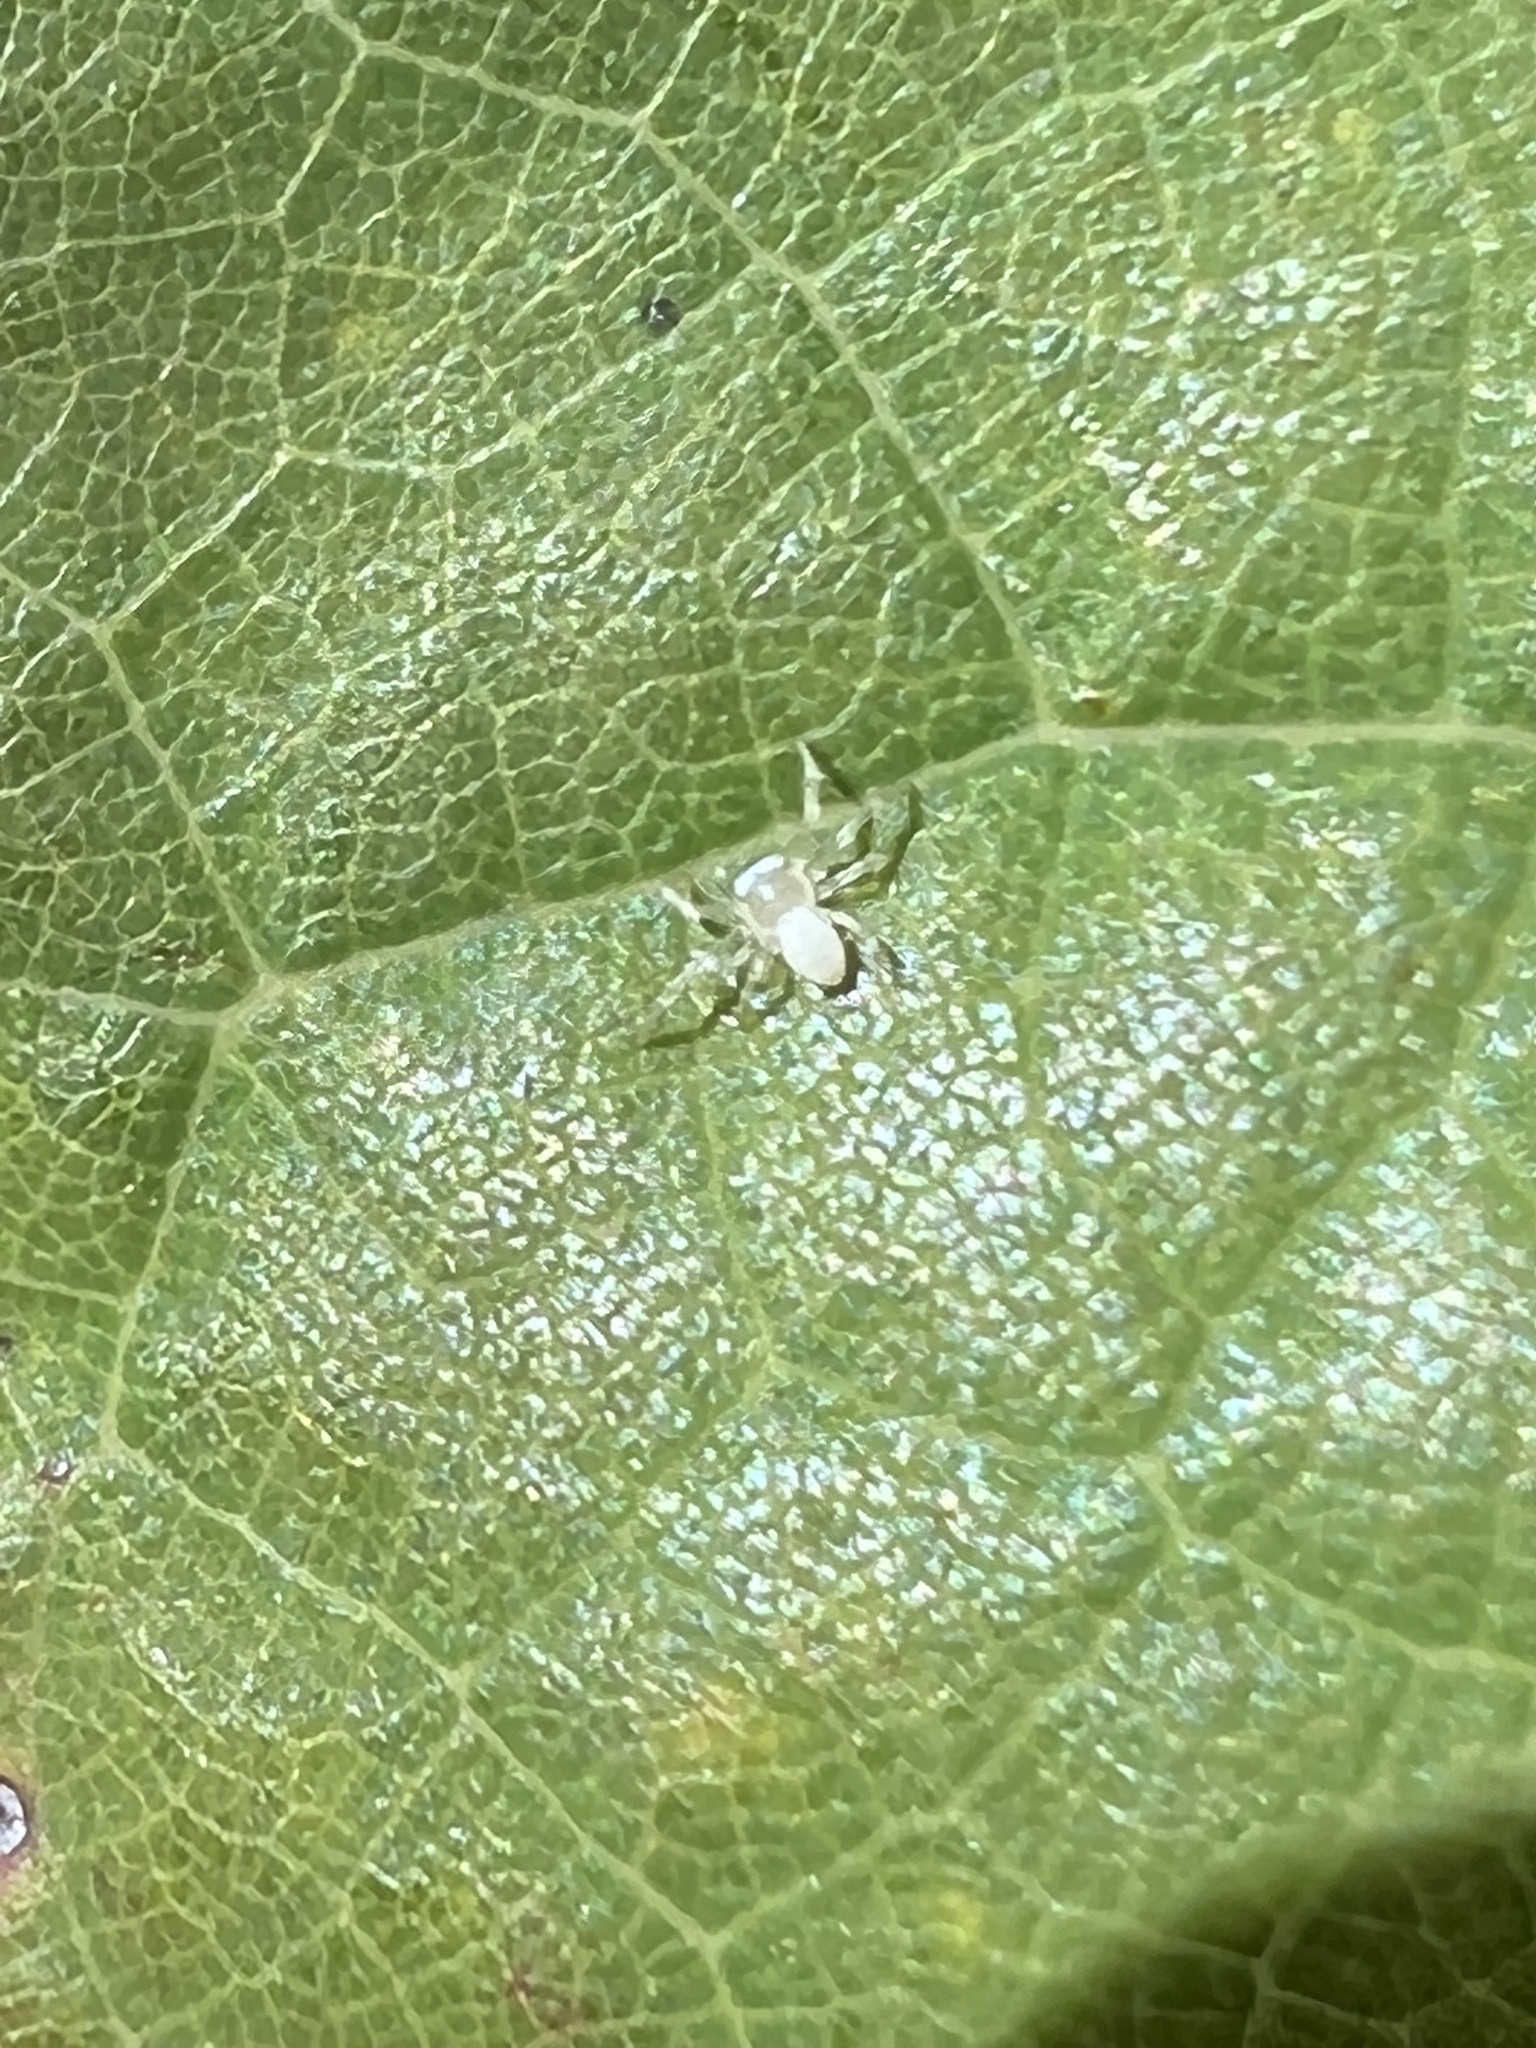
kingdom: Animalia
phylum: Arthropoda
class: Arachnida
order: Araneae
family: Thomisidae
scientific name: Thomisidae
